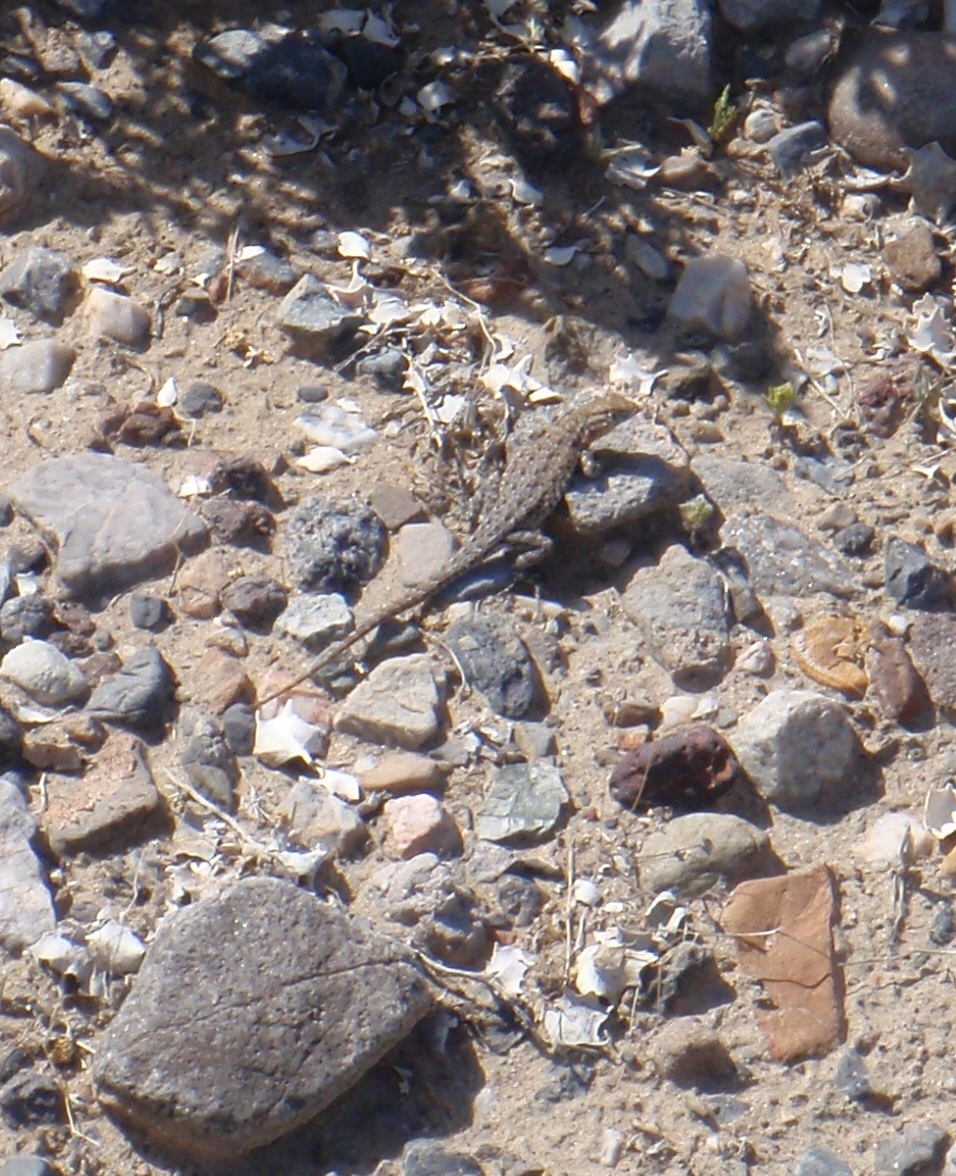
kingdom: Animalia
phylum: Chordata
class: Squamata
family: Phrynosomatidae
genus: Uta
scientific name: Uta stansburiana
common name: Side-blotched lizard
